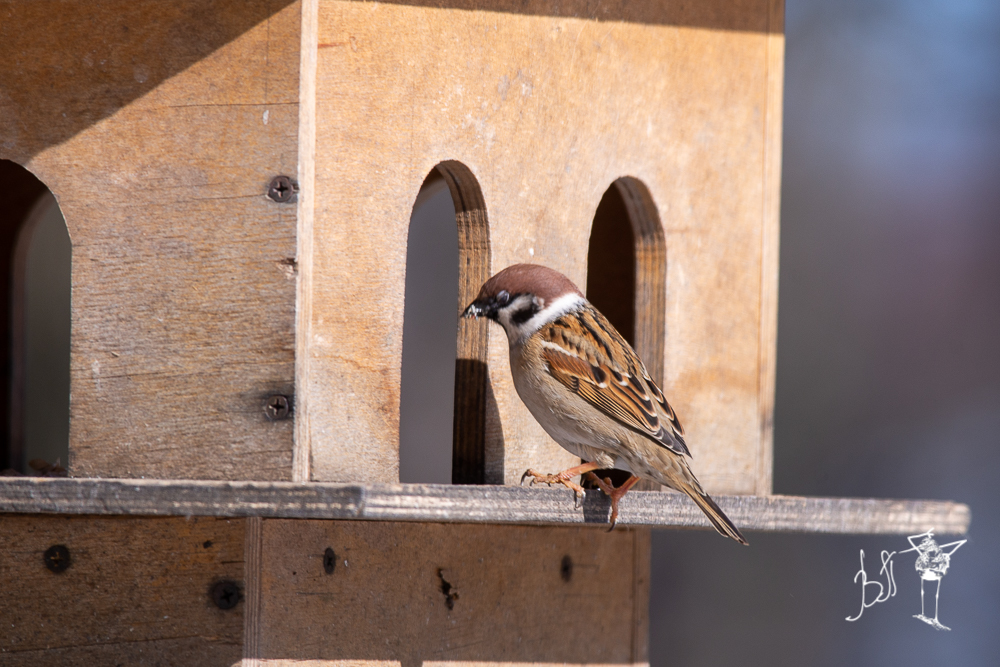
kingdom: Animalia
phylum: Chordata
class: Aves
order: Passeriformes
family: Passeridae
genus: Passer
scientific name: Passer montanus
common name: Eurasian tree sparrow
